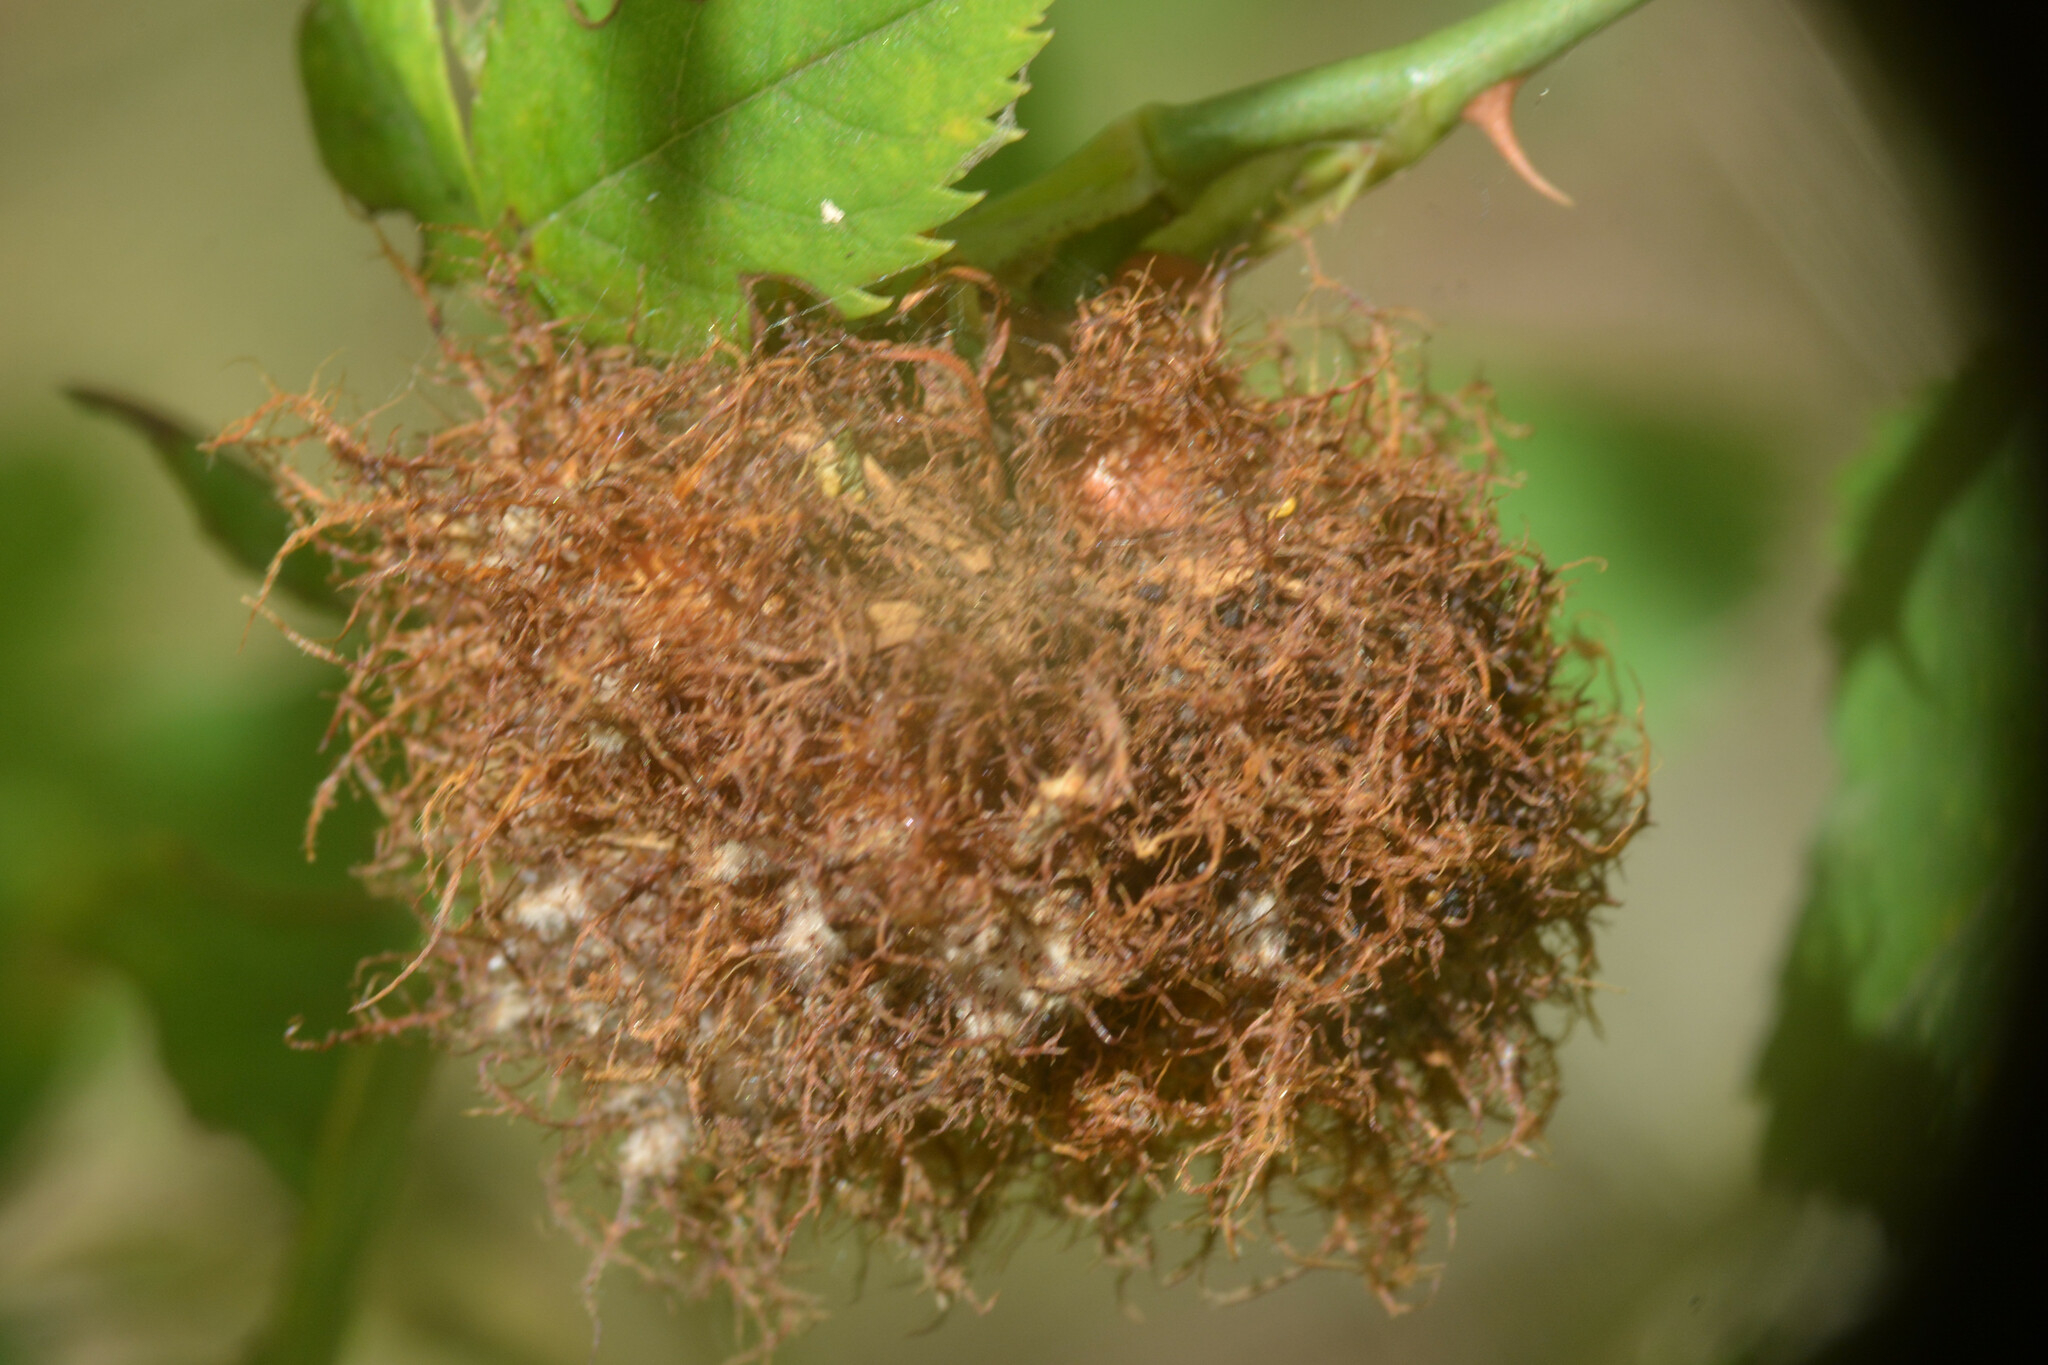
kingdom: Animalia
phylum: Arthropoda
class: Insecta
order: Hymenoptera
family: Cynipidae
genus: Diplolepis
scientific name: Diplolepis rosae
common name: Bedeguar gall
